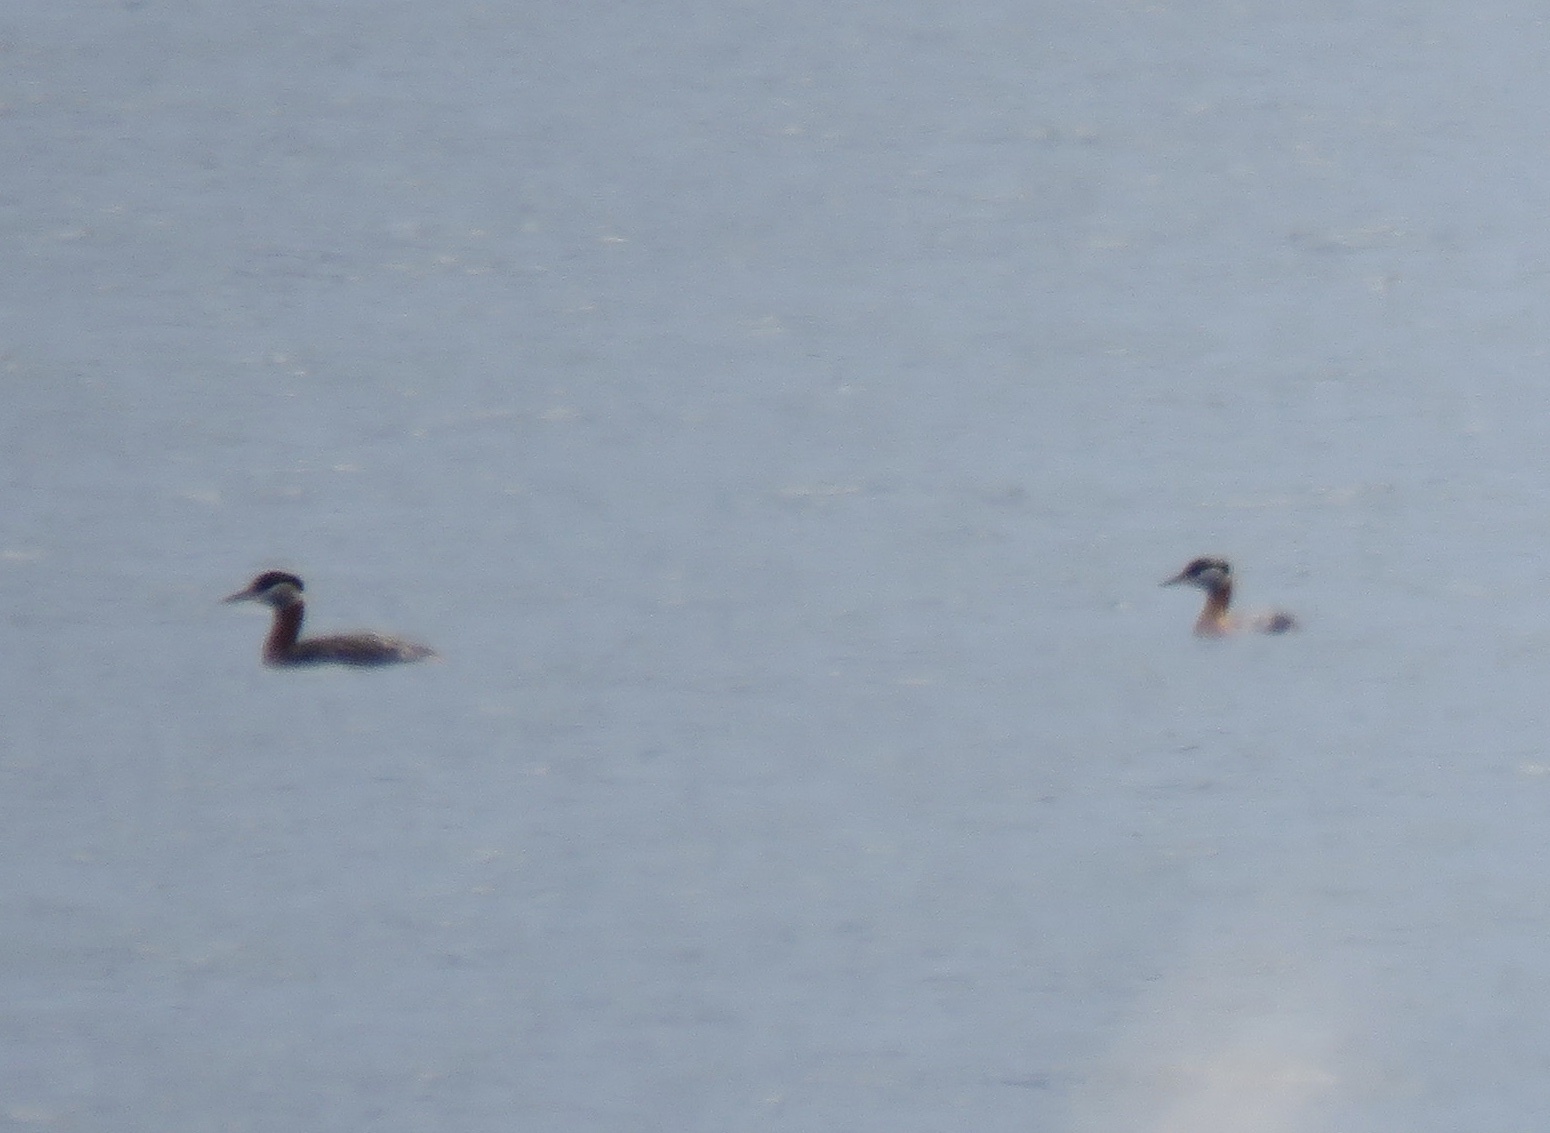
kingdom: Animalia
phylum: Chordata
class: Aves
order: Podicipediformes
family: Podicipedidae
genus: Podiceps
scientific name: Podiceps grisegena
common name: Red-necked grebe
